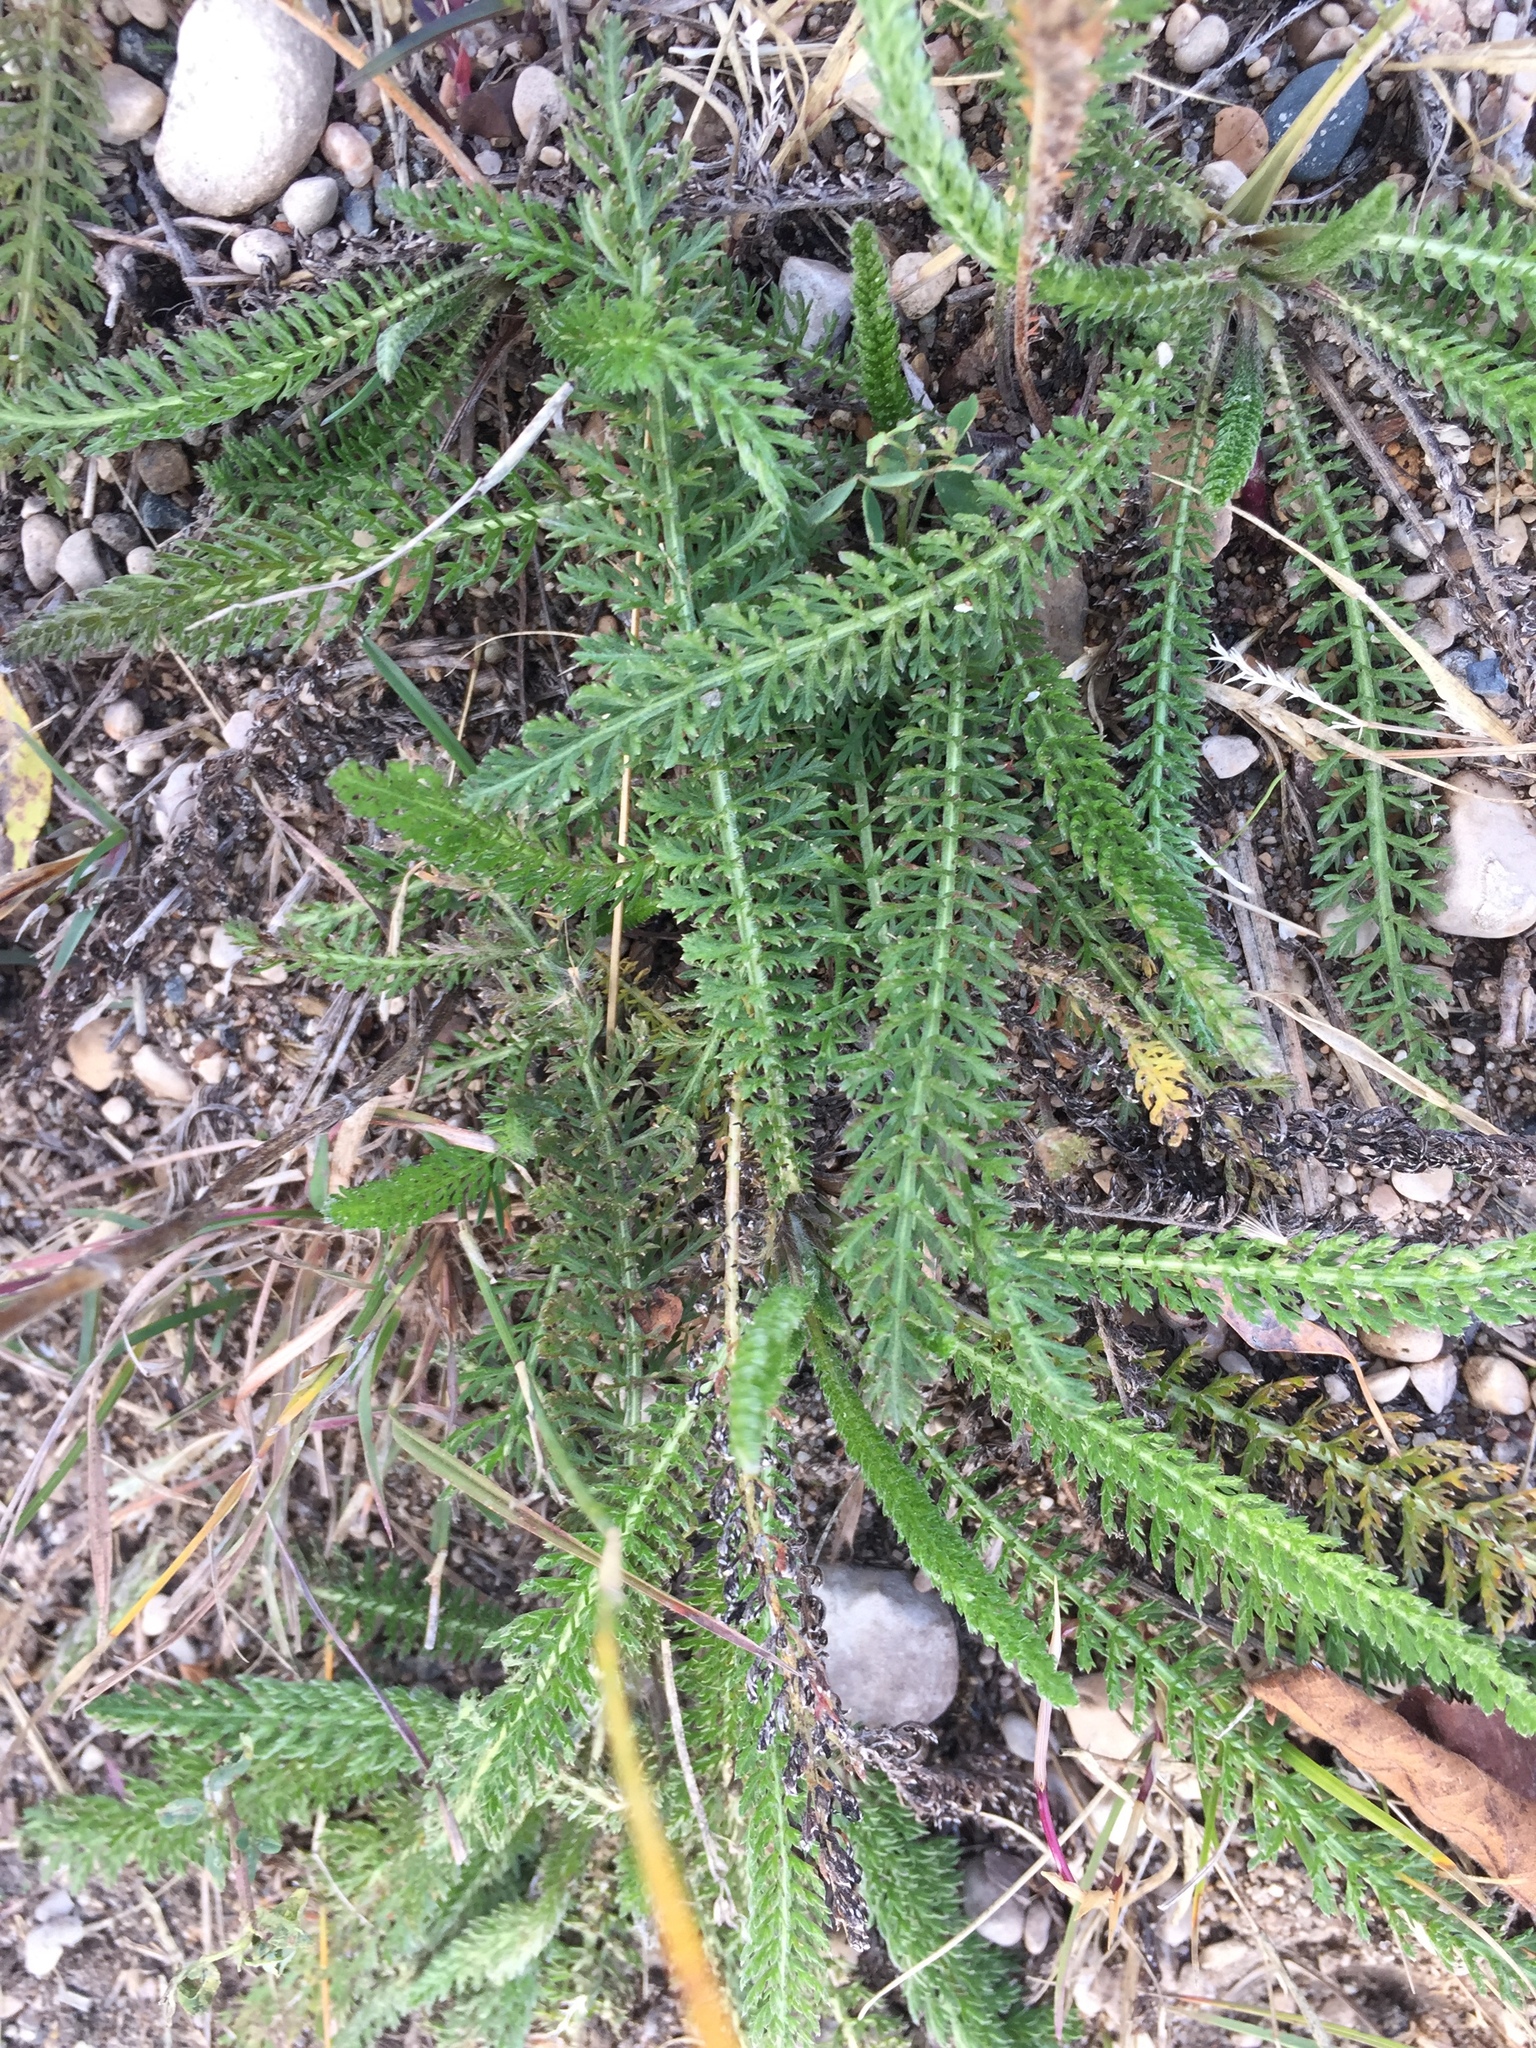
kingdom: Plantae
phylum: Tracheophyta
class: Magnoliopsida
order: Asterales
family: Asteraceae
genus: Achillea
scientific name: Achillea millefolium
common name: Yarrow
